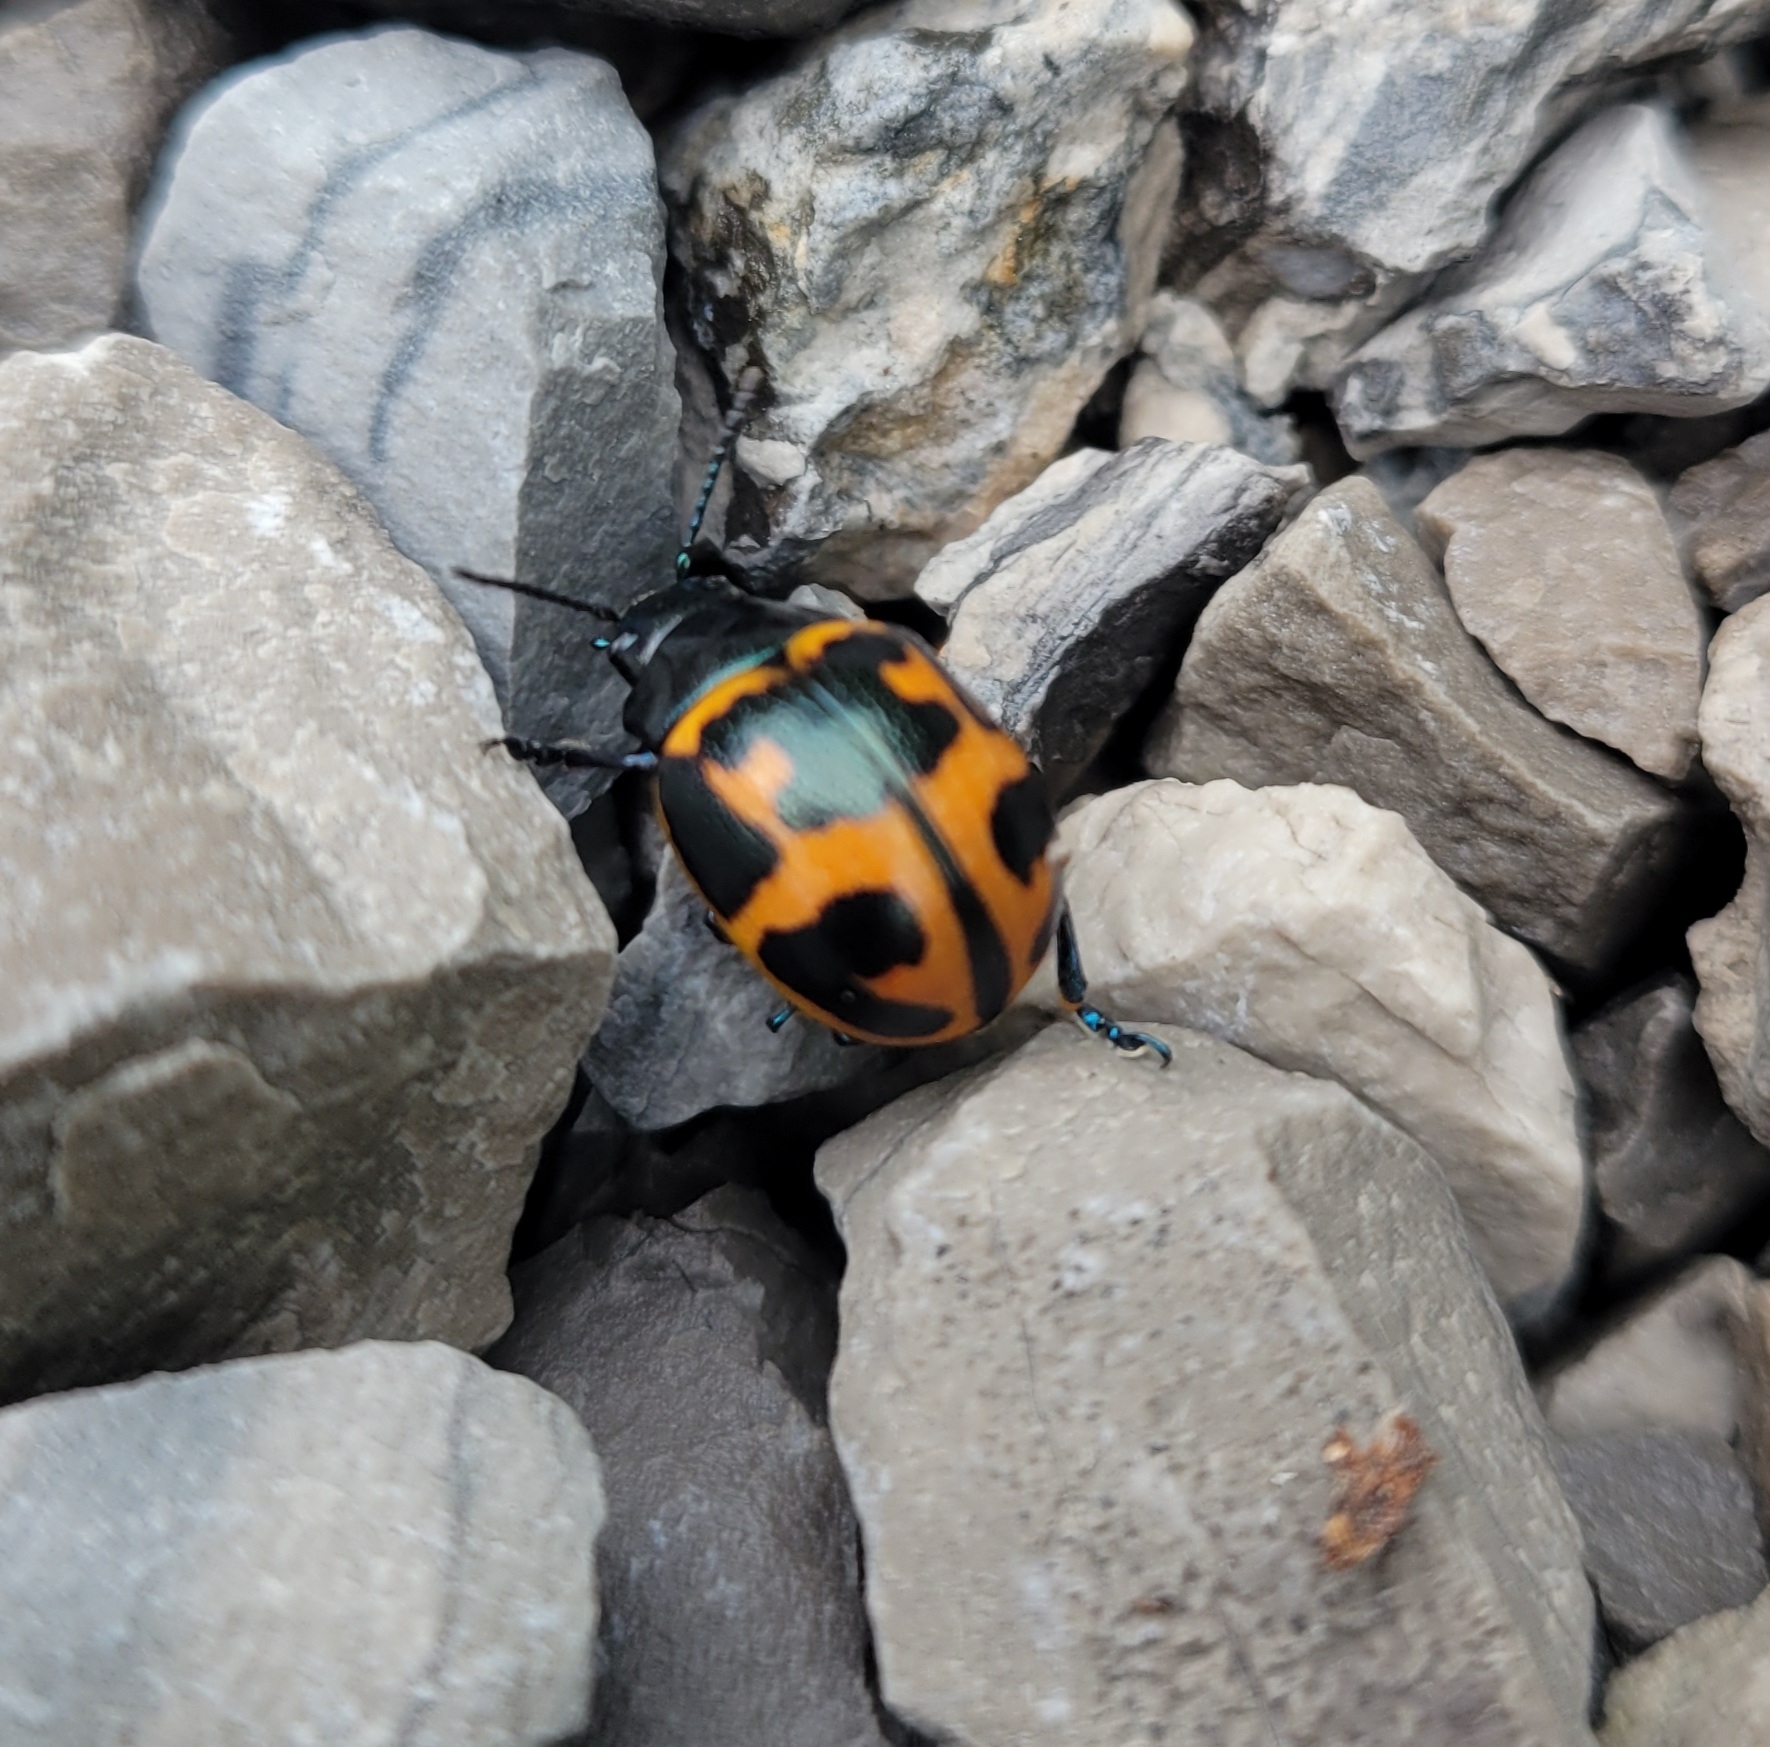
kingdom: Animalia
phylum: Arthropoda
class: Insecta
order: Coleoptera
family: Chrysomelidae
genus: Labidomera
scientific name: Labidomera clivicollis
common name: Swamp milkweed leaf beetle
